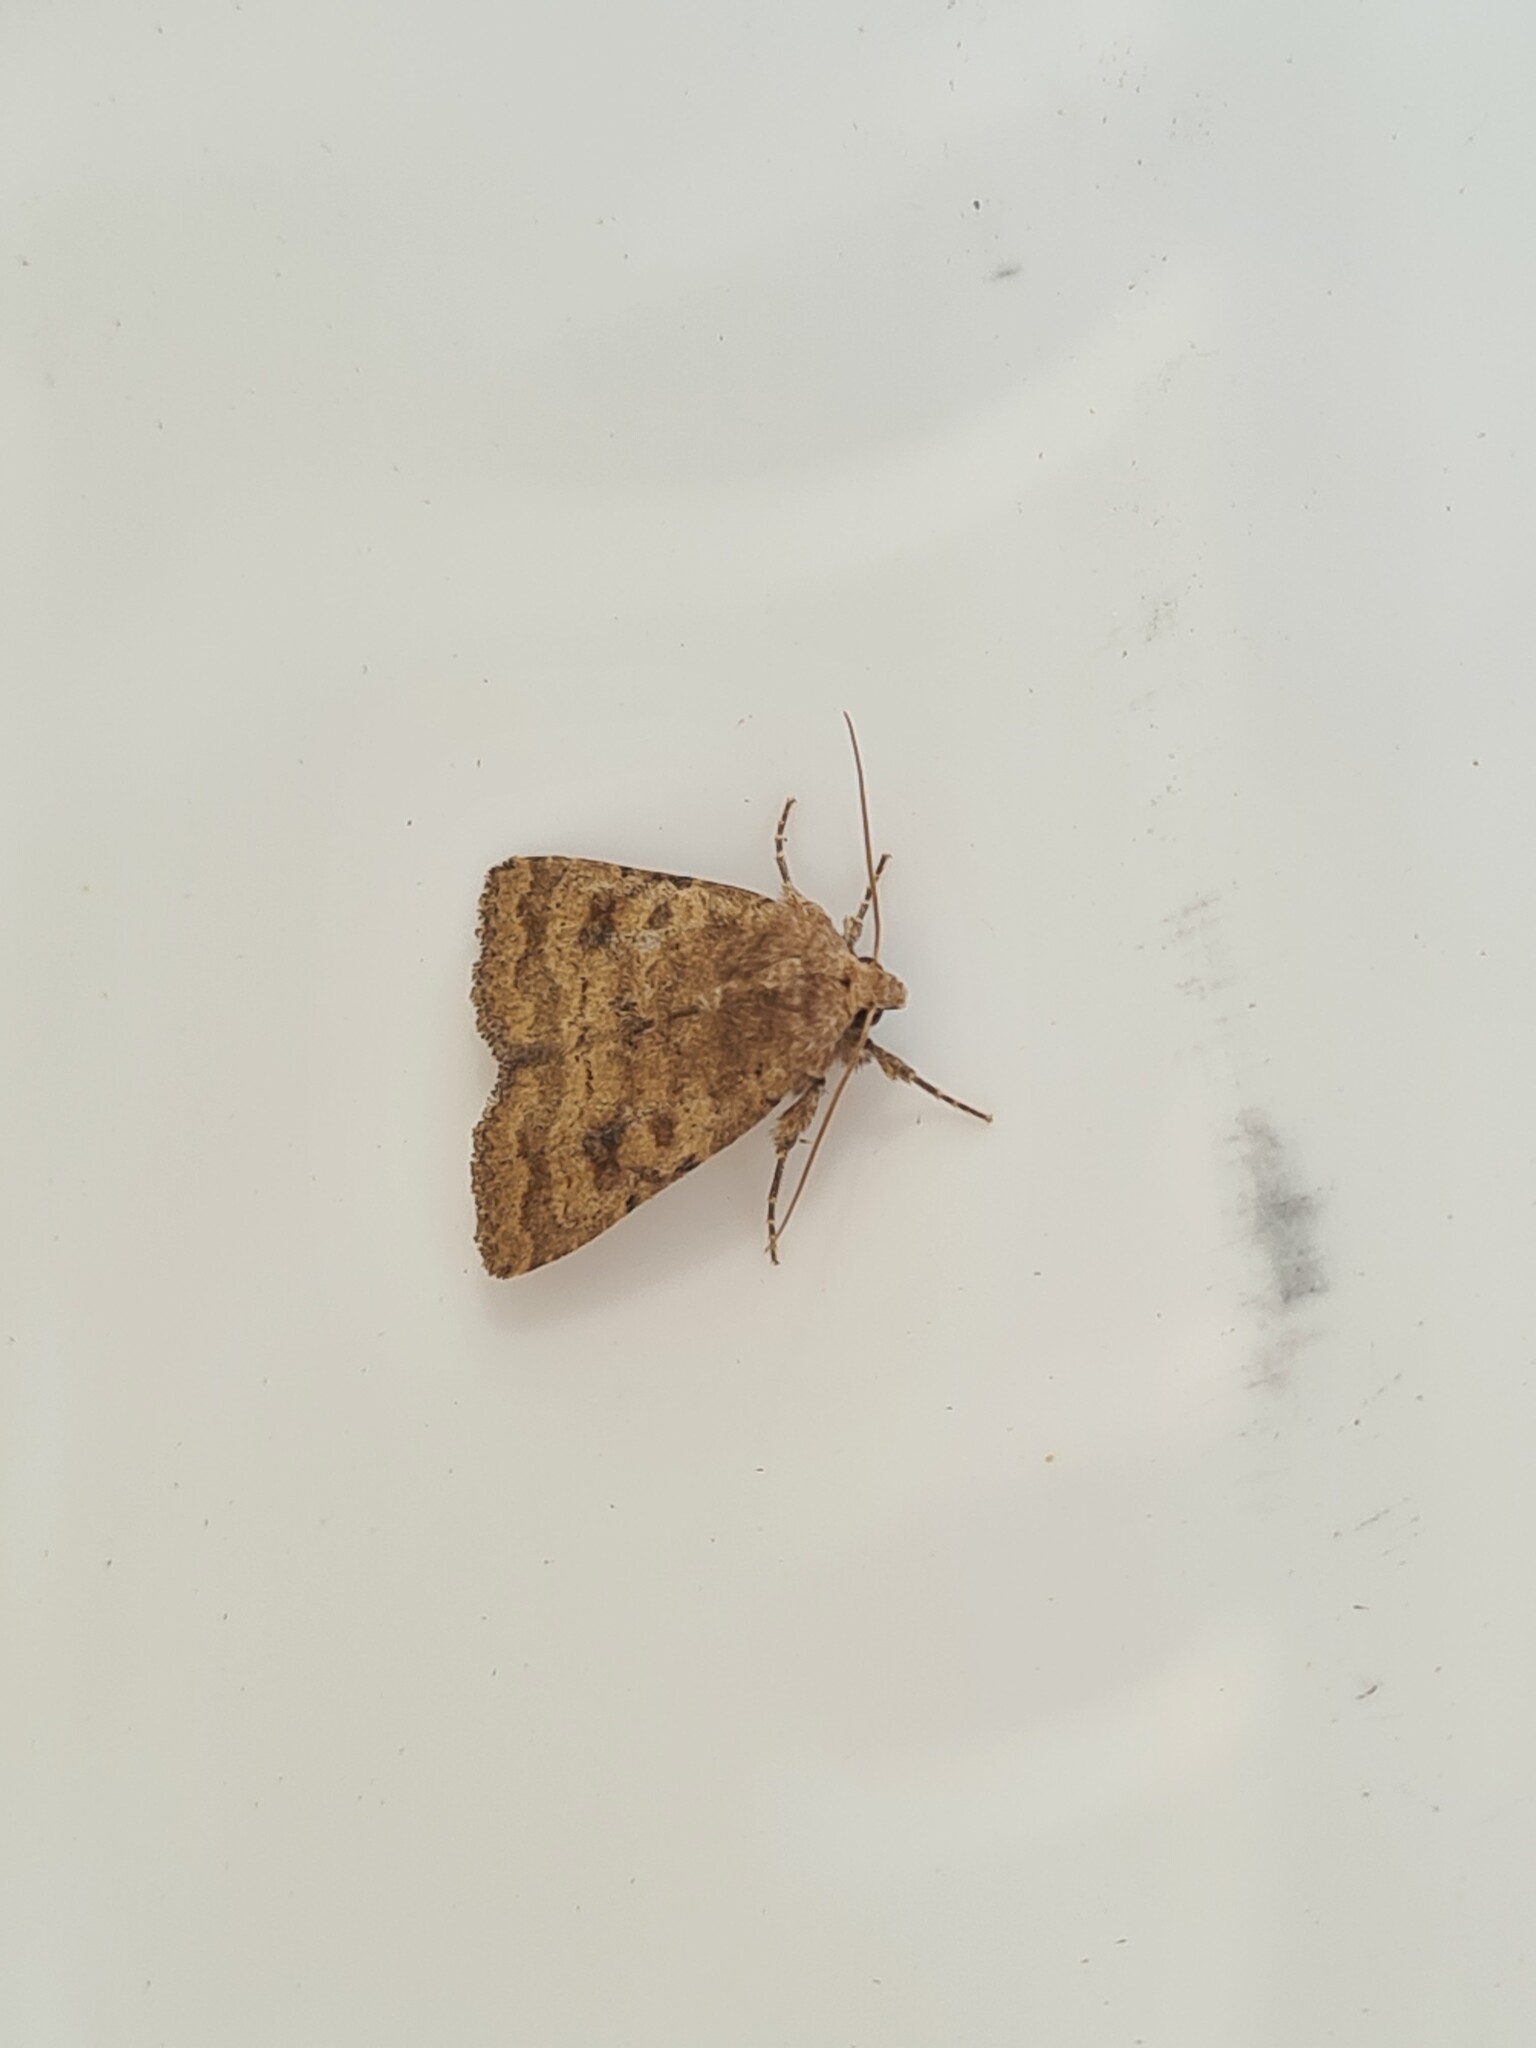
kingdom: Animalia
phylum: Arthropoda
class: Insecta
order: Lepidoptera
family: Noctuidae
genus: Caradrina
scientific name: Caradrina morpheus
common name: Mottled rustic
